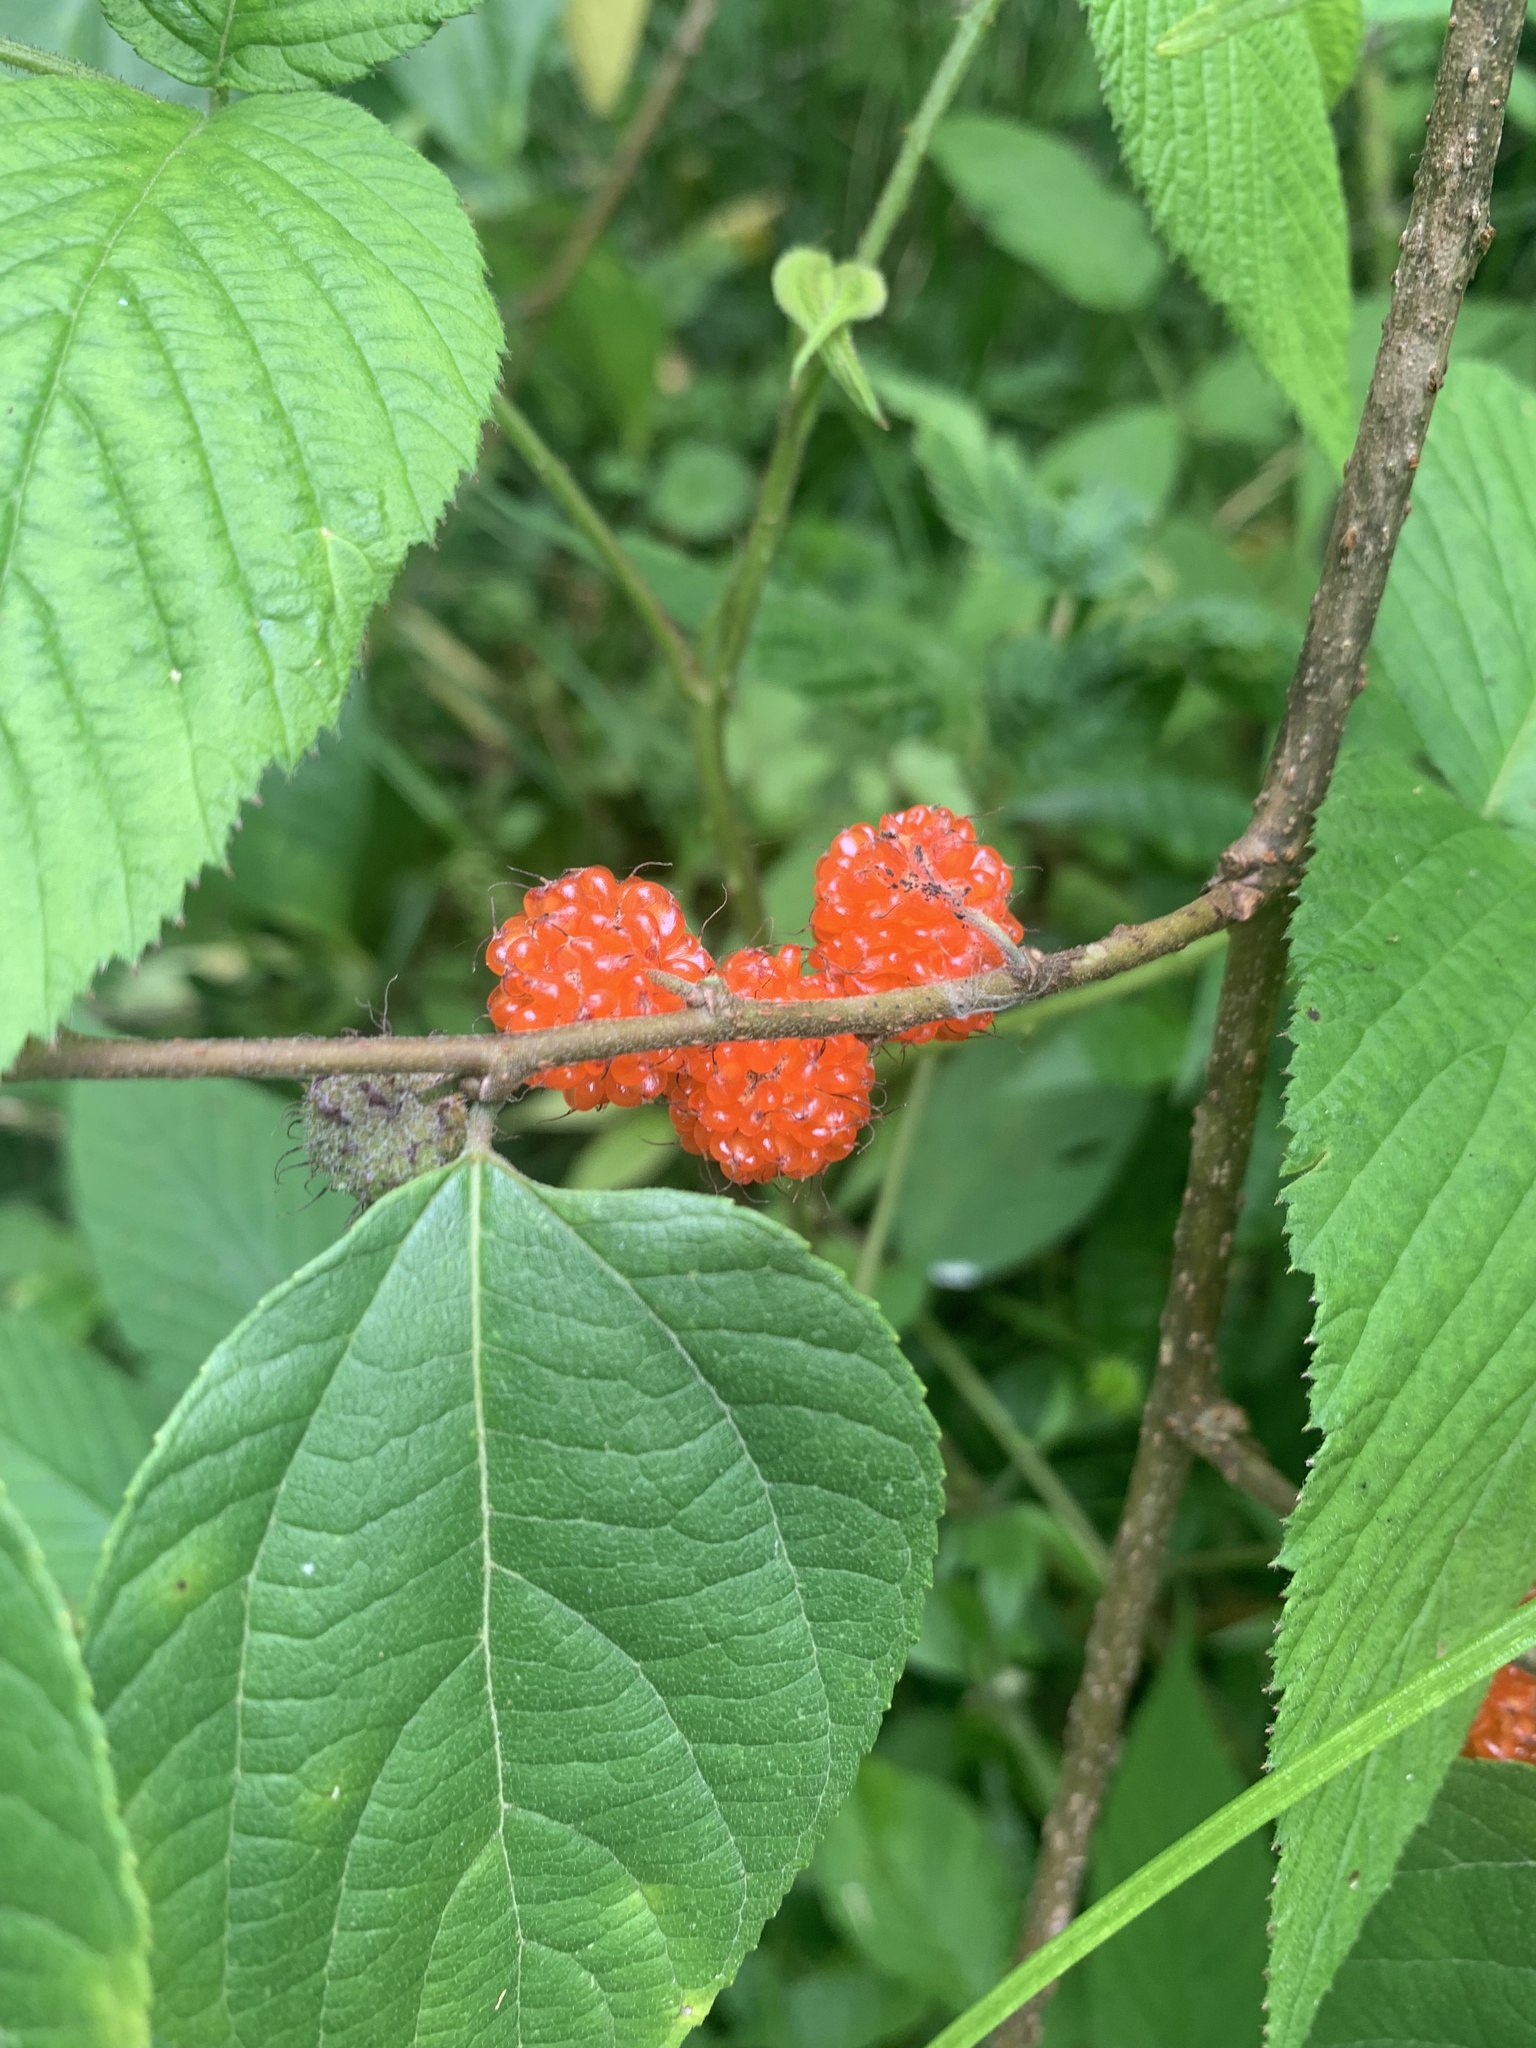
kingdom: Plantae
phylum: Tracheophyta
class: Magnoliopsida
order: Rosales
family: Moraceae
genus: Broussonetia
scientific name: Broussonetia monoica
